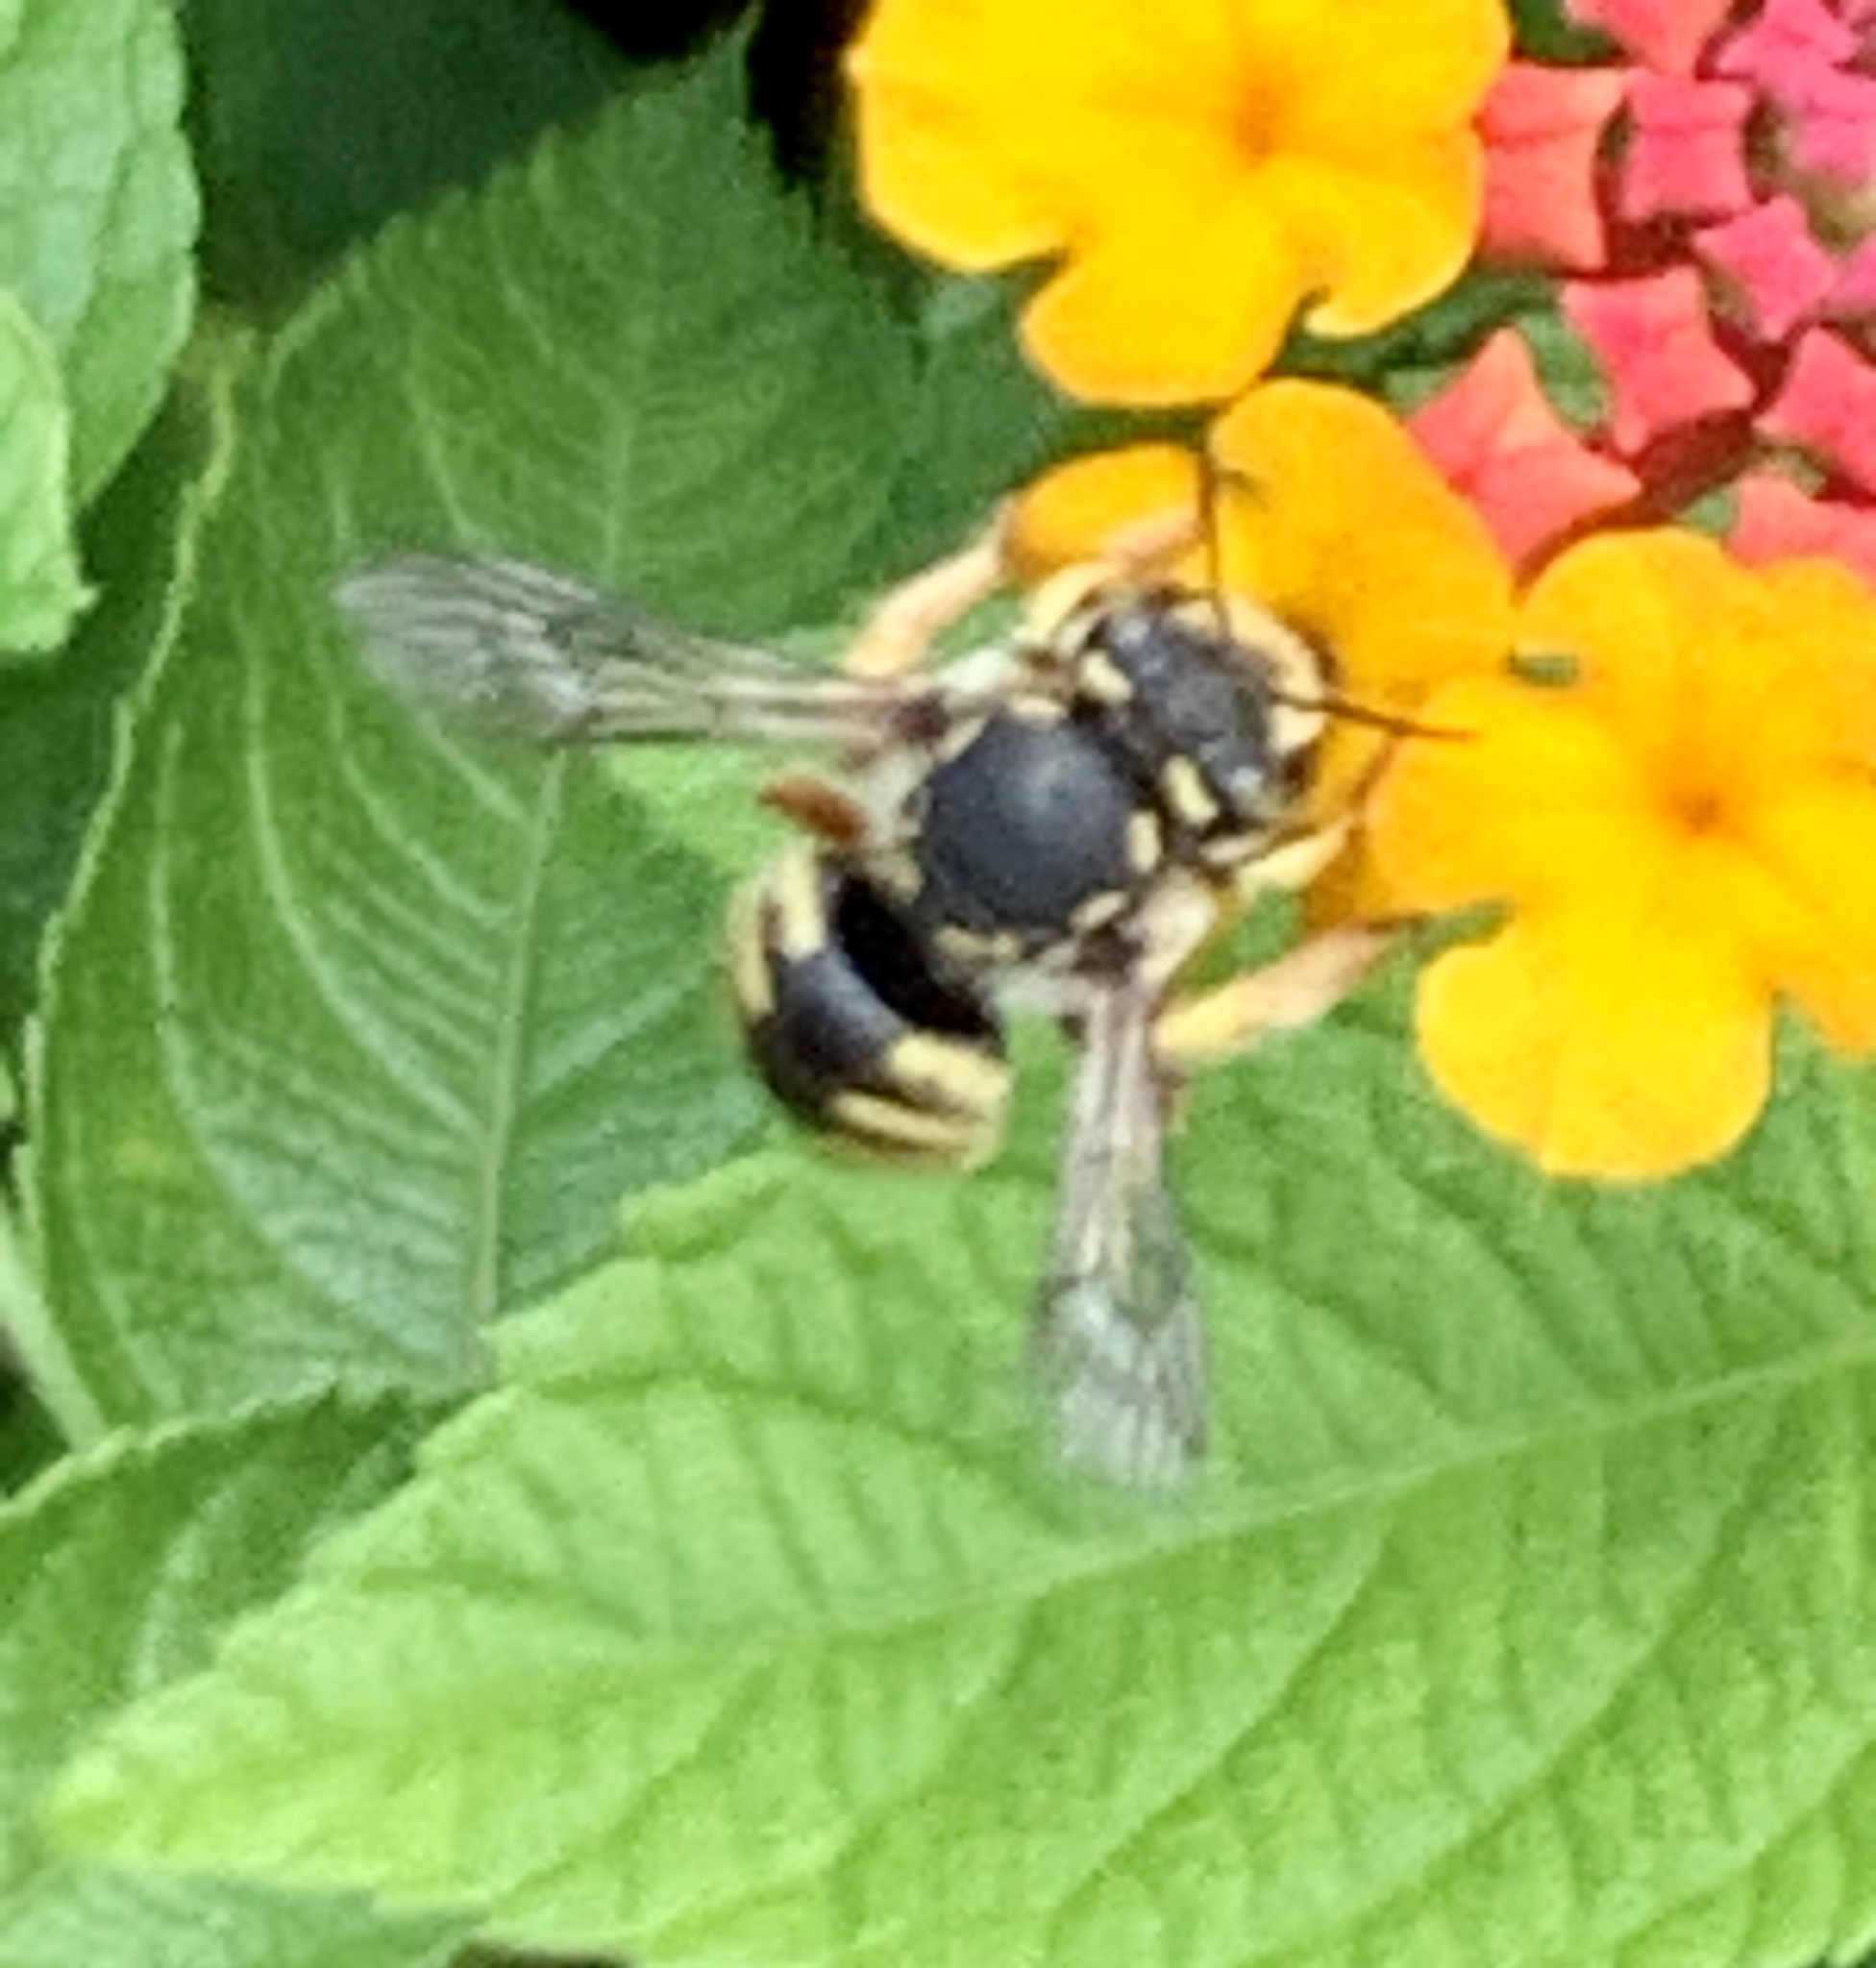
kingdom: Animalia
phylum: Arthropoda
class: Insecta
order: Hymenoptera
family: Megachilidae
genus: Anthidium
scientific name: Anthidium manicatum
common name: Wool carder bee
